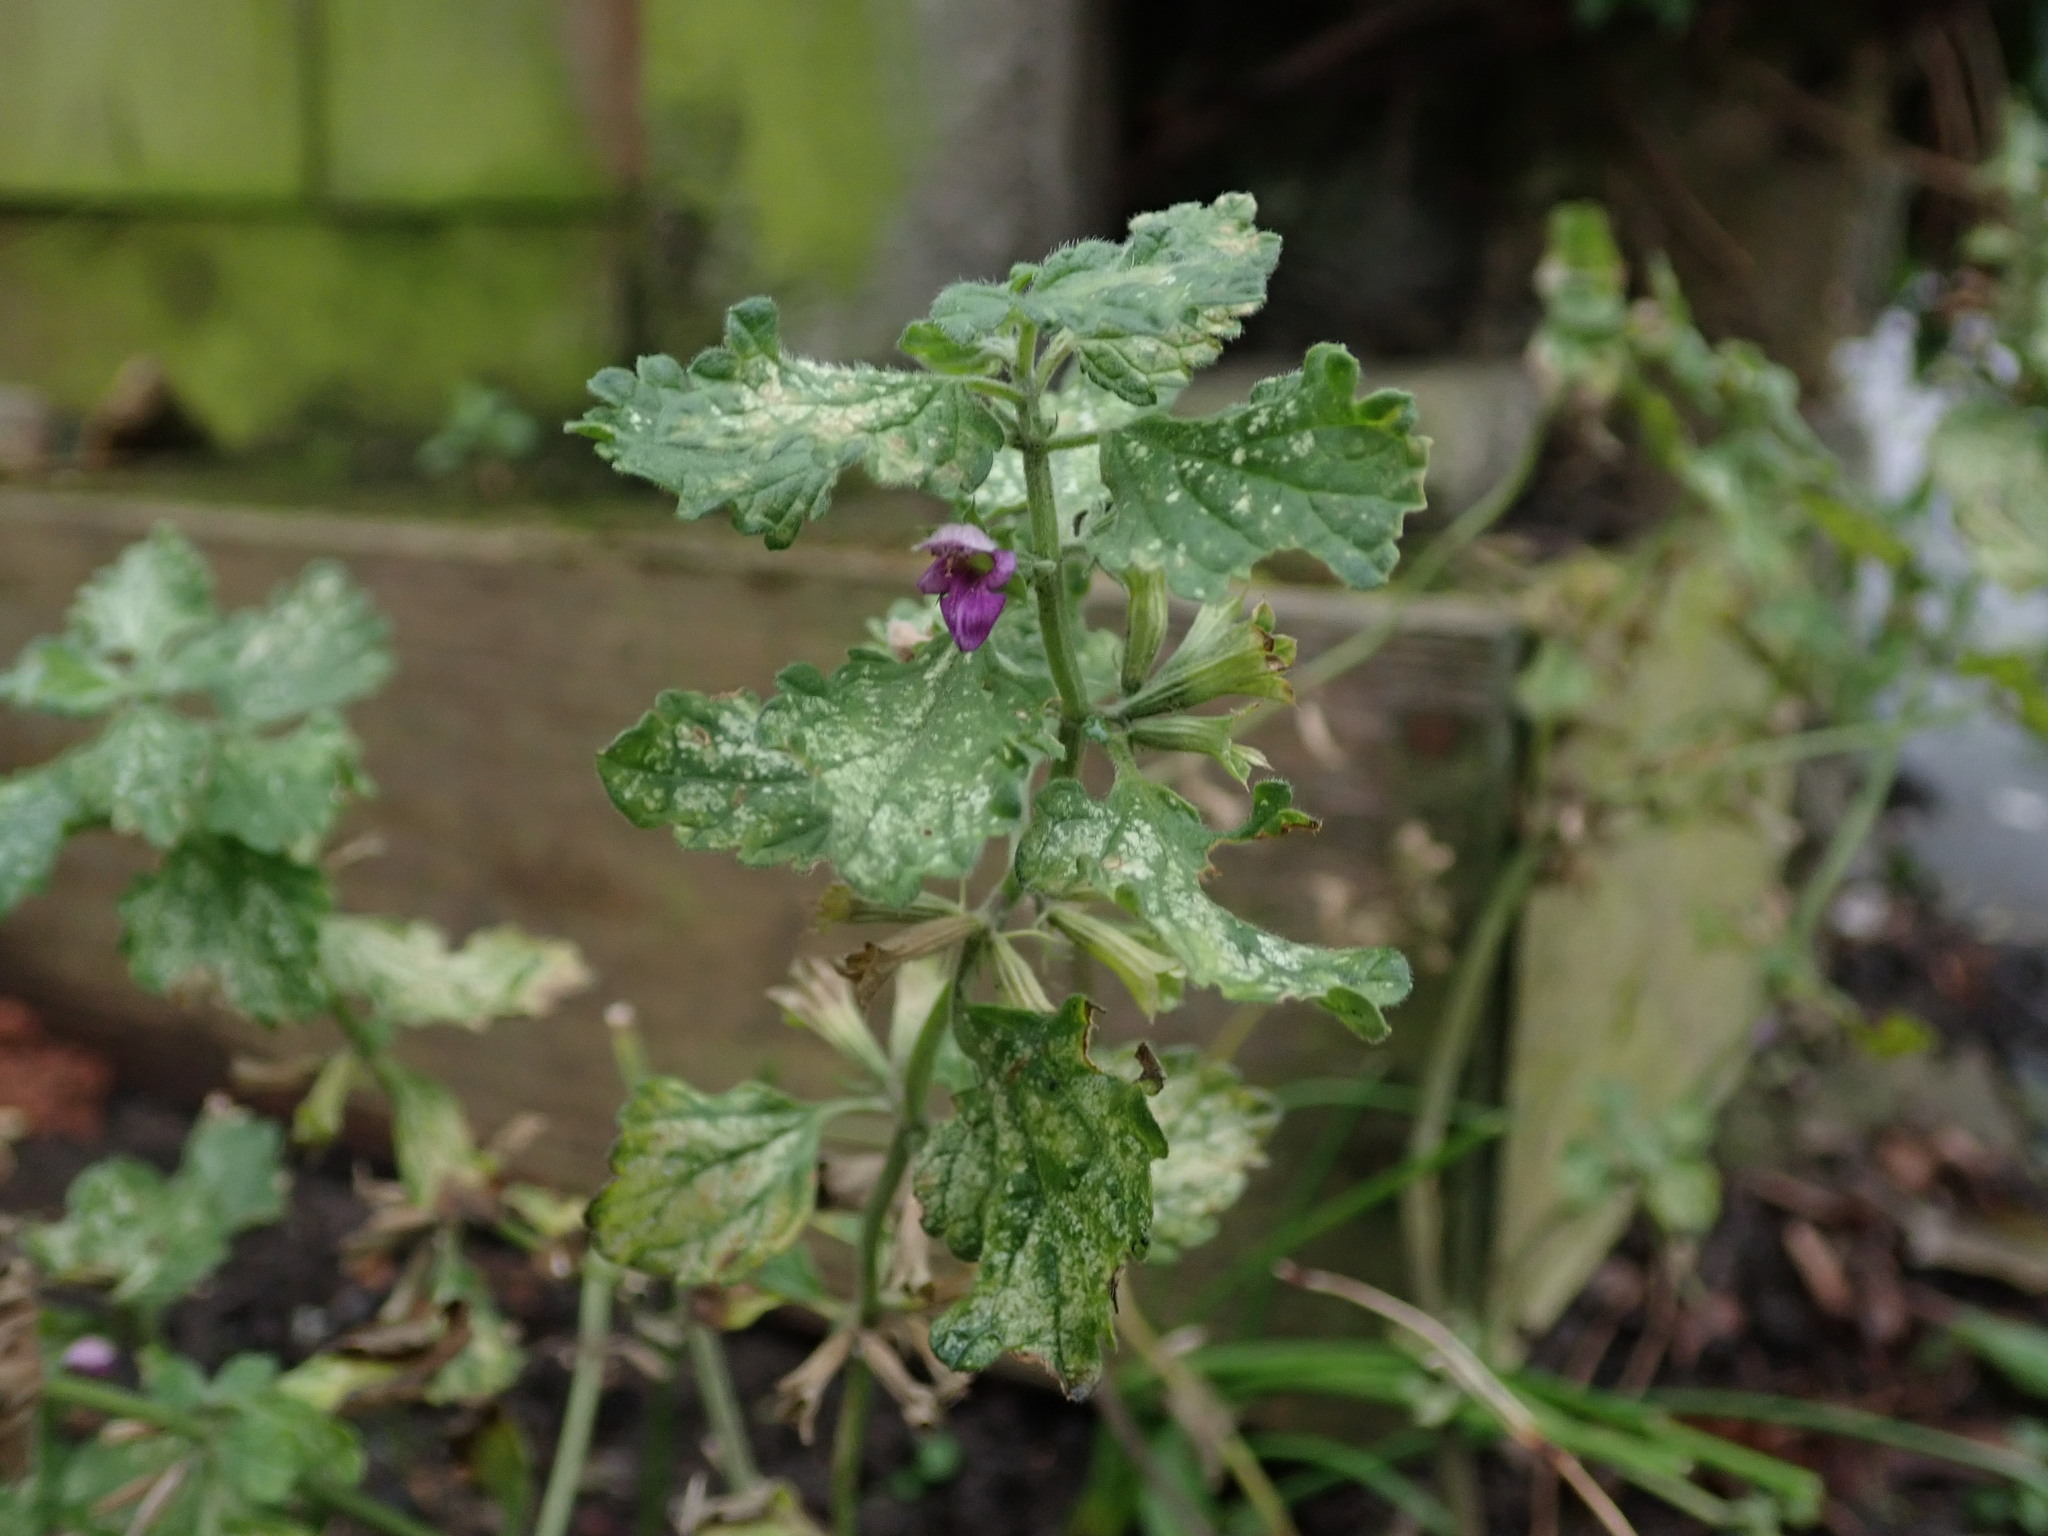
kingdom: Plantae
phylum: Tracheophyta
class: Magnoliopsida
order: Lamiales
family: Lamiaceae
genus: Ballota
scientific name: Ballota nigra
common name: Black horehound
